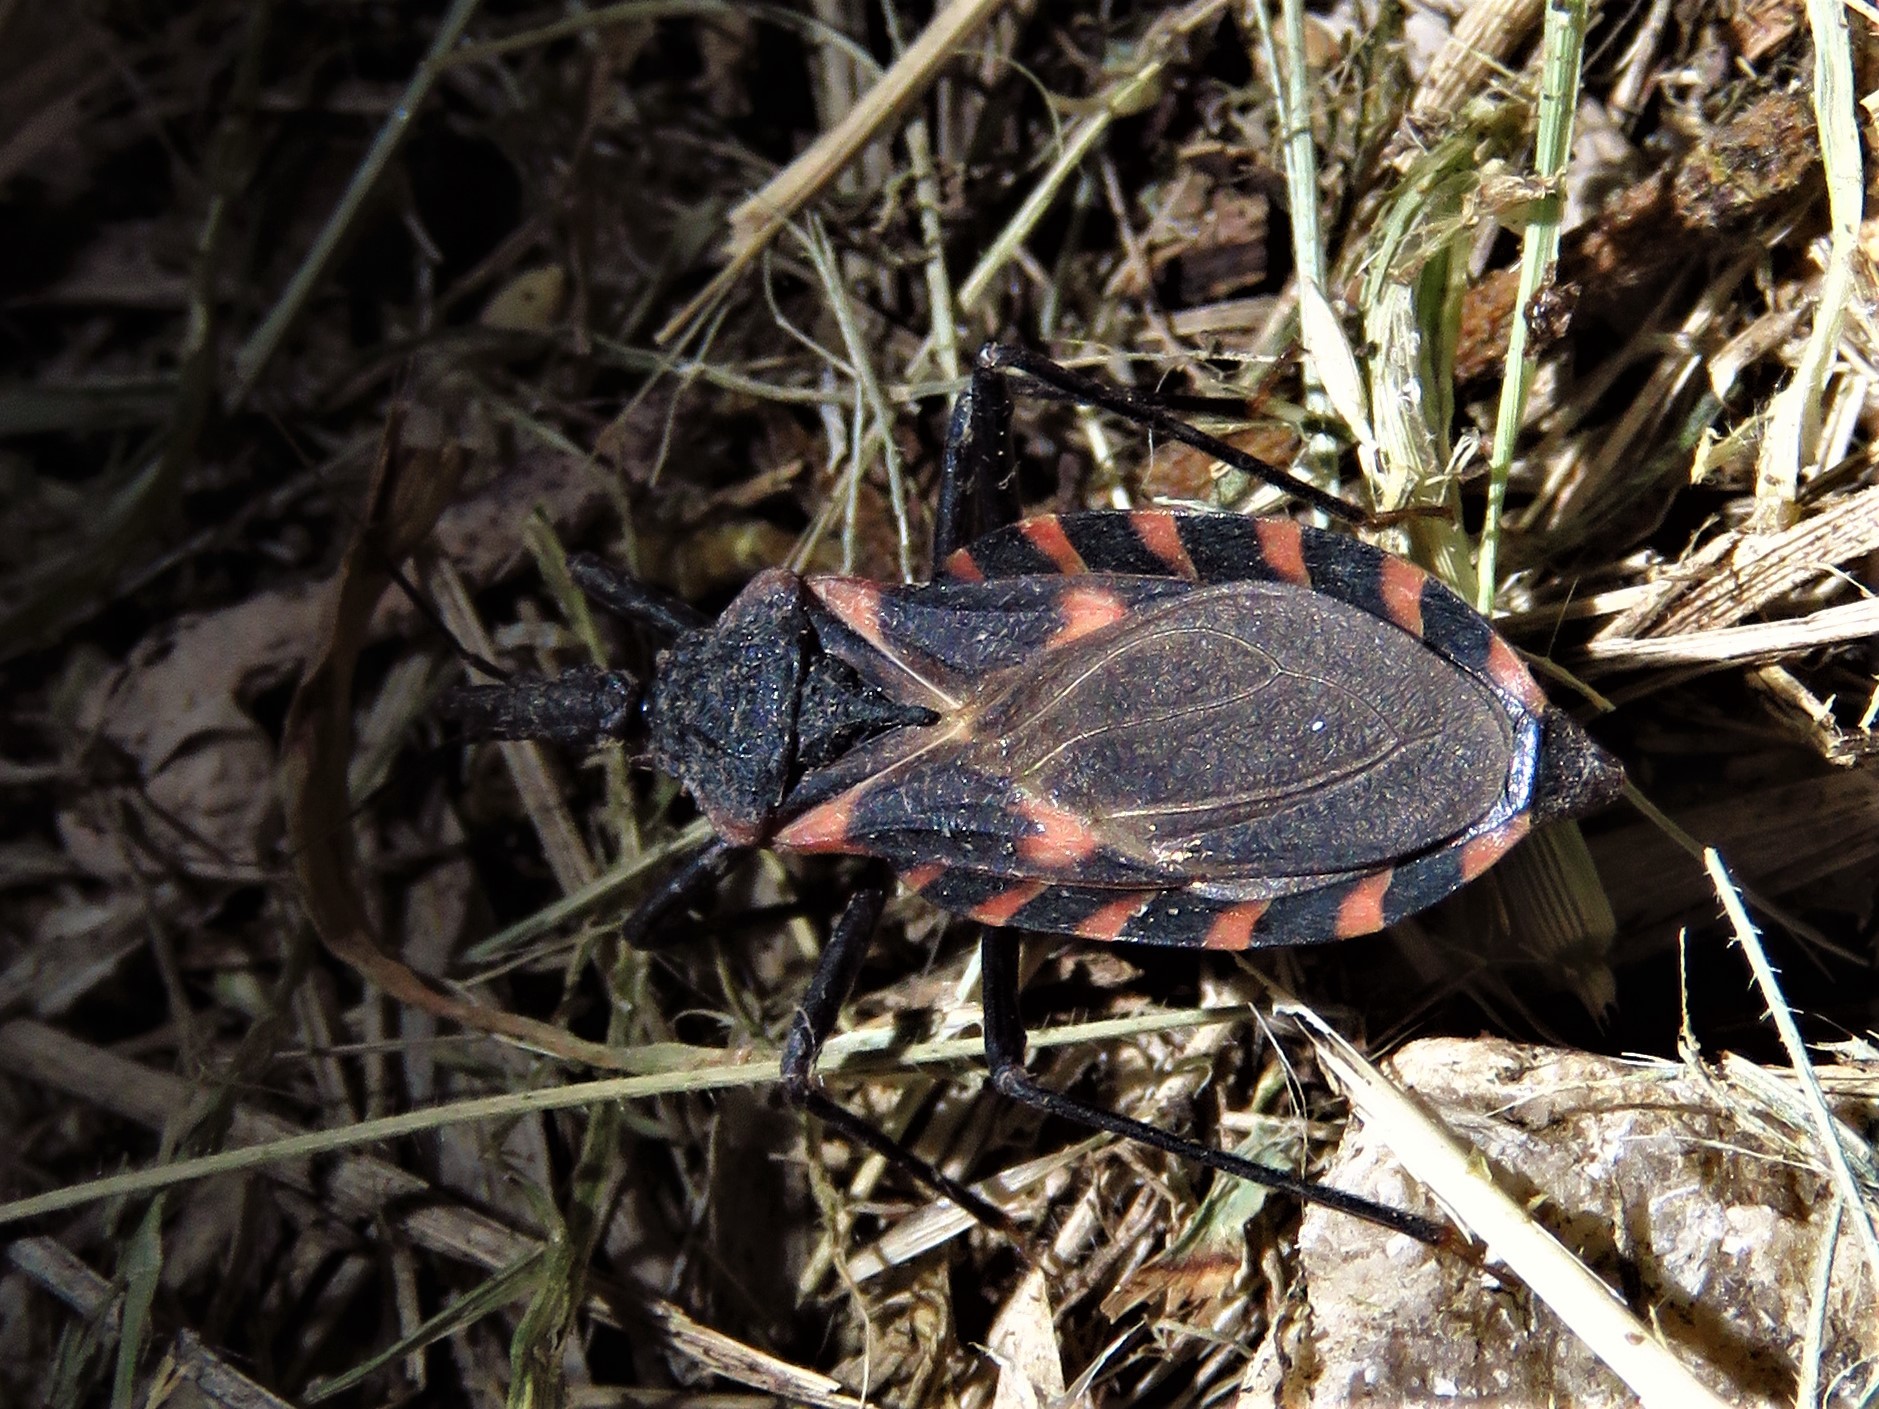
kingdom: Animalia
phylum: Arthropoda
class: Insecta
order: Hemiptera
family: Reduviidae
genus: Triatoma
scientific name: Triatoma sanguisuga
